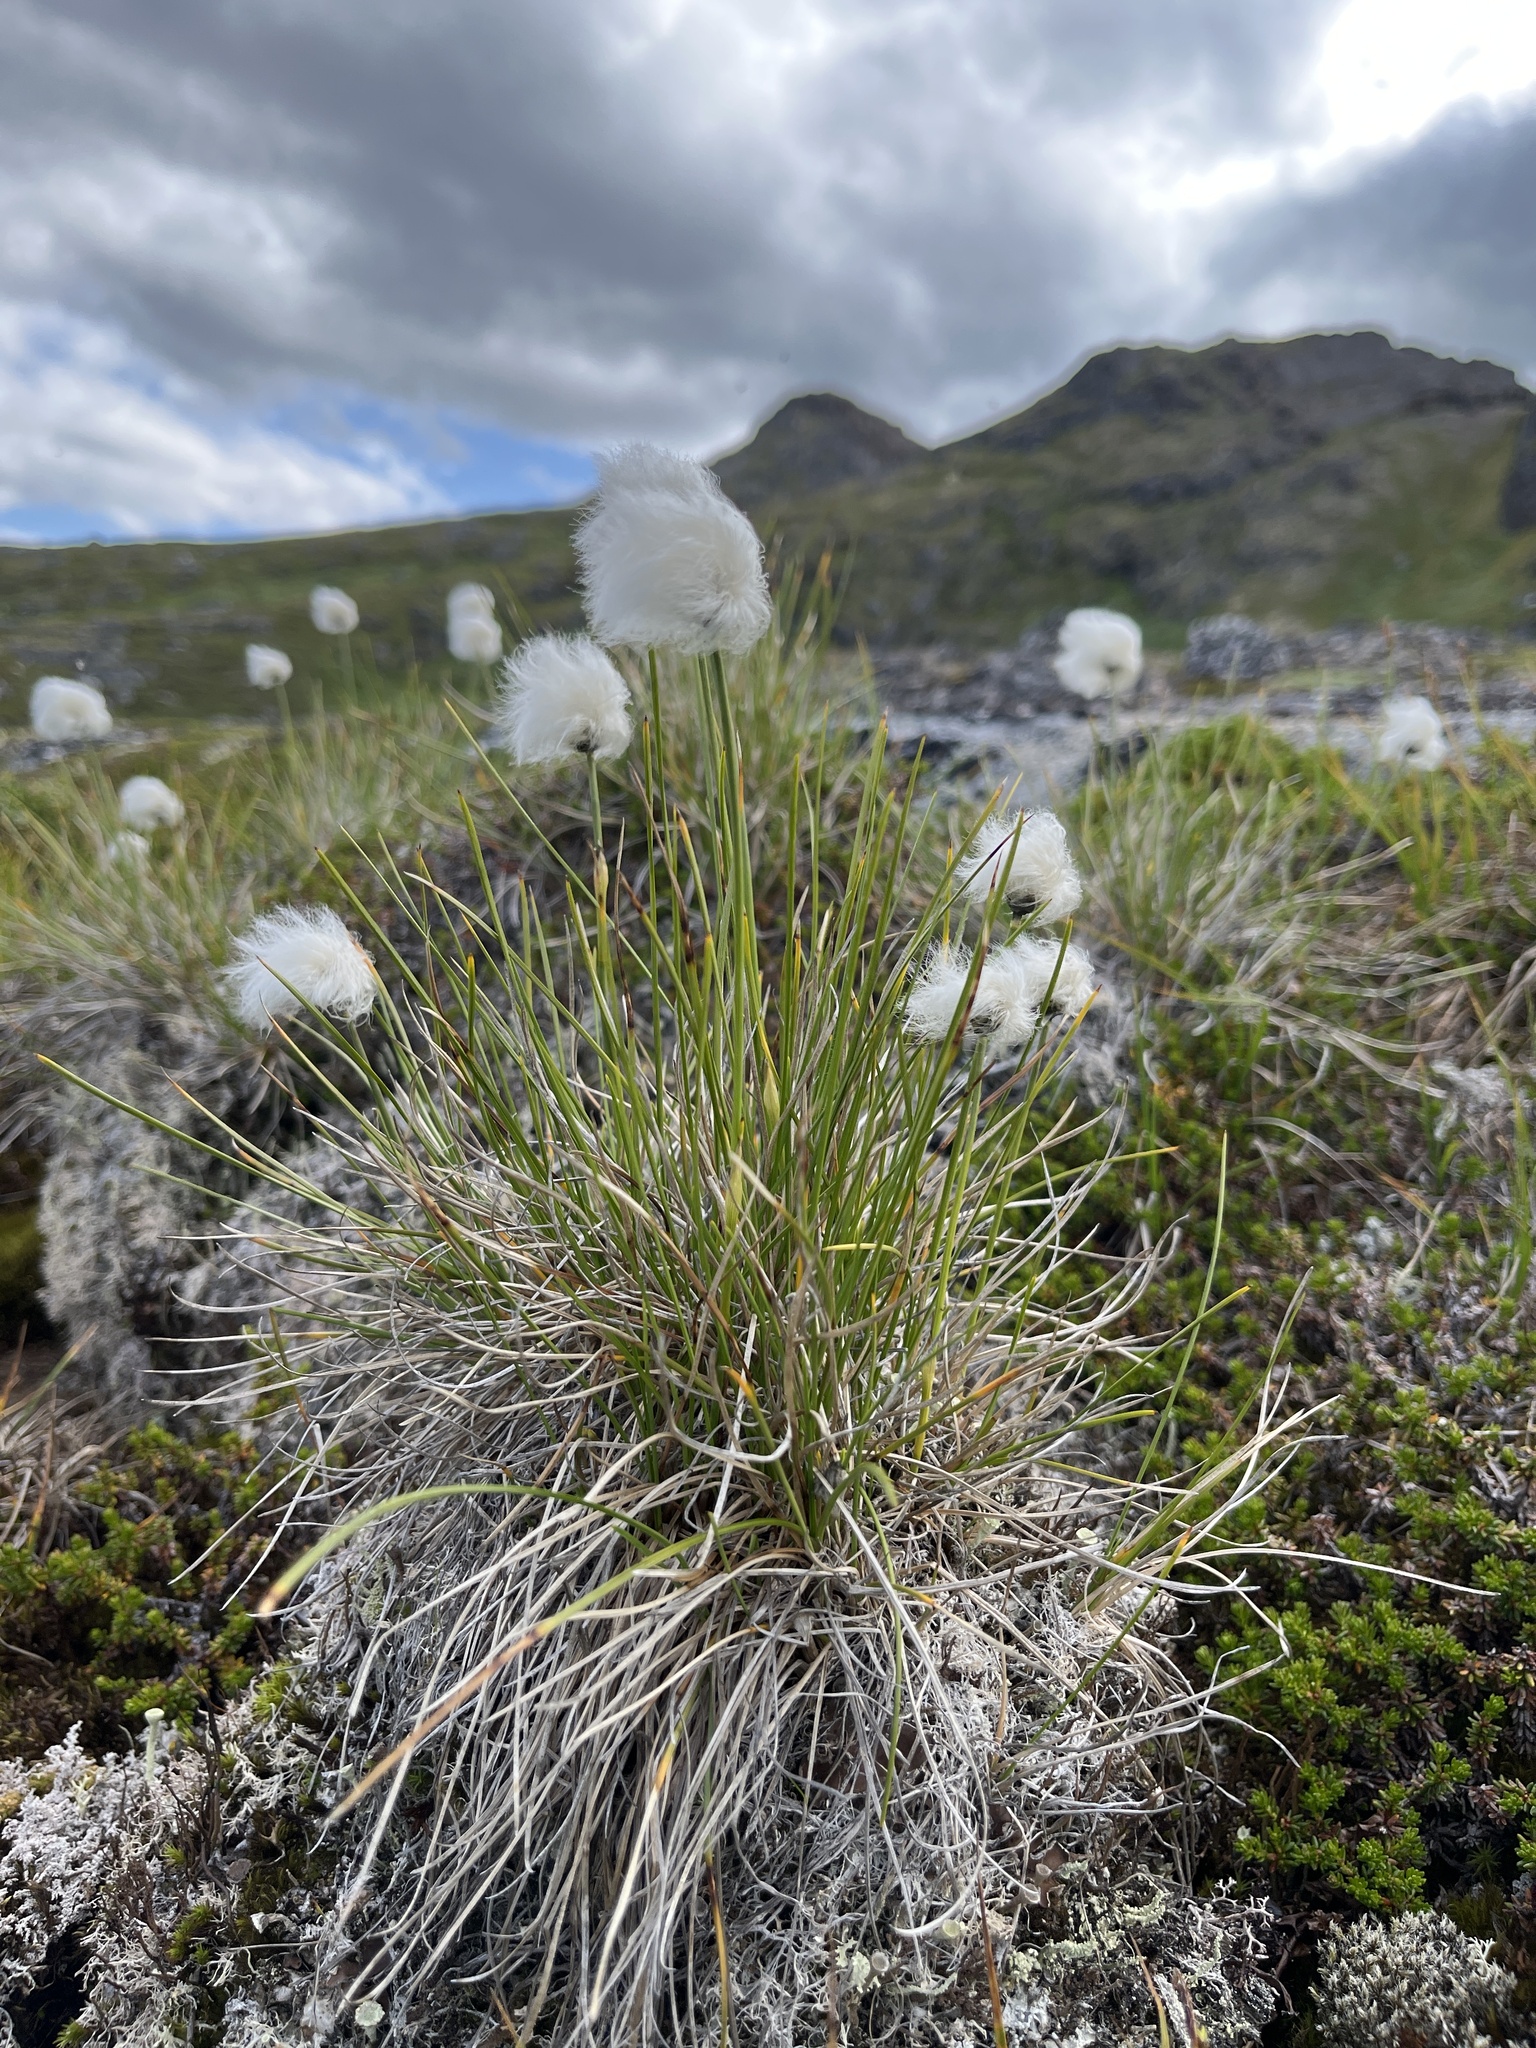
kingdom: Plantae
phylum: Tracheophyta
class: Liliopsida
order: Poales
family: Cyperaceae
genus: Eriophorum
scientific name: Eriophorum vaginatum
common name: Hare's-tail cottongrass
